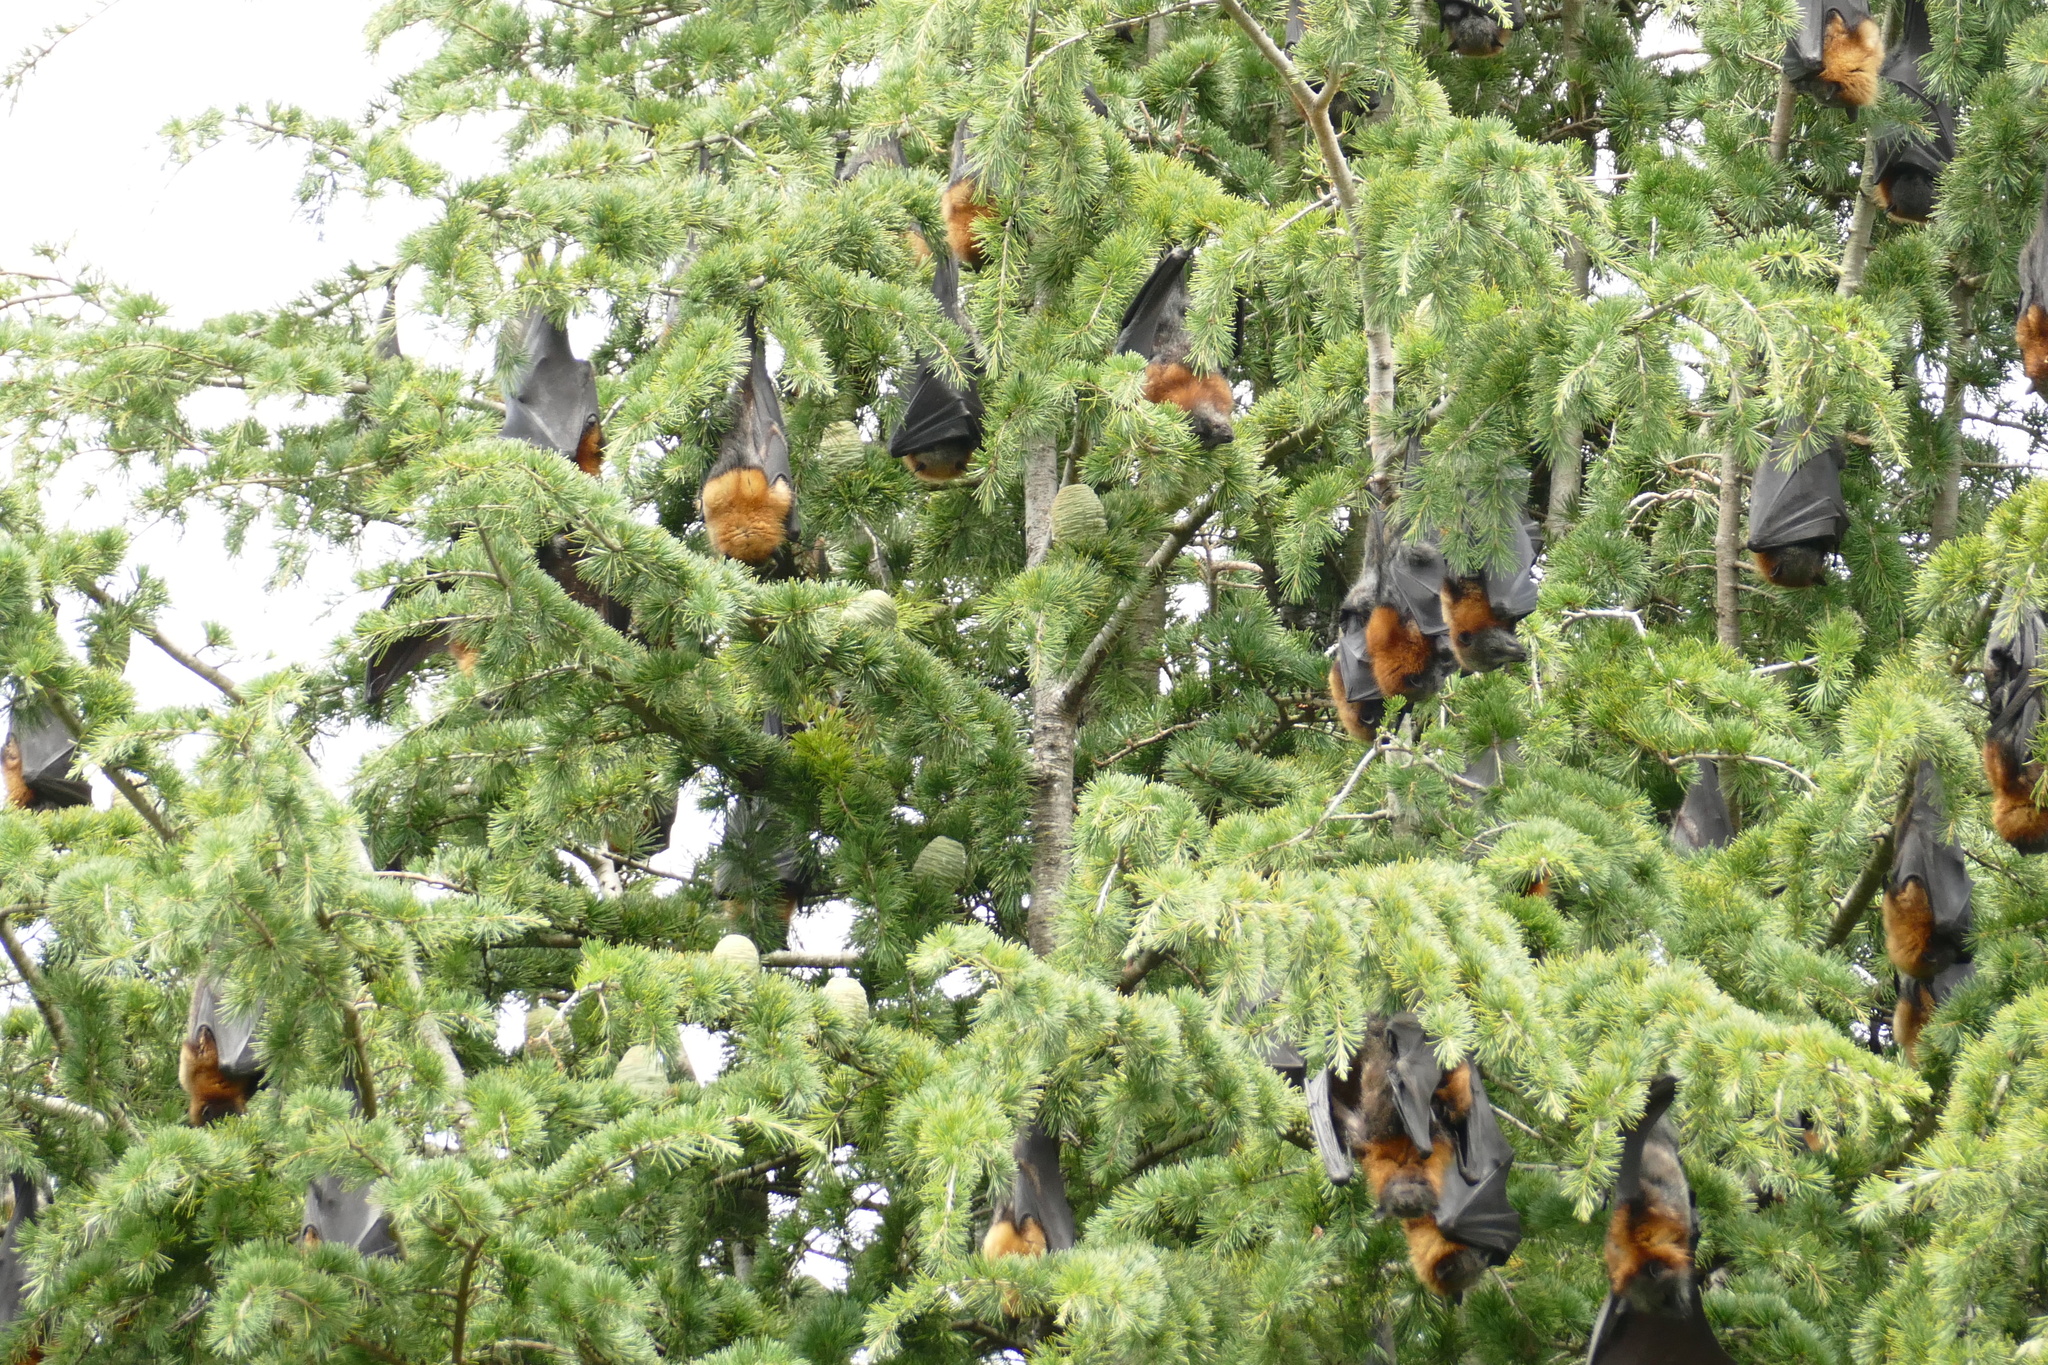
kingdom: Animalia
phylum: Chordata
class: Mammalia
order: Chiroptera
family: Pteropodidae
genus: Pteropus
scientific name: Pteropus poliocephalus
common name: Gray-headed flying fox
